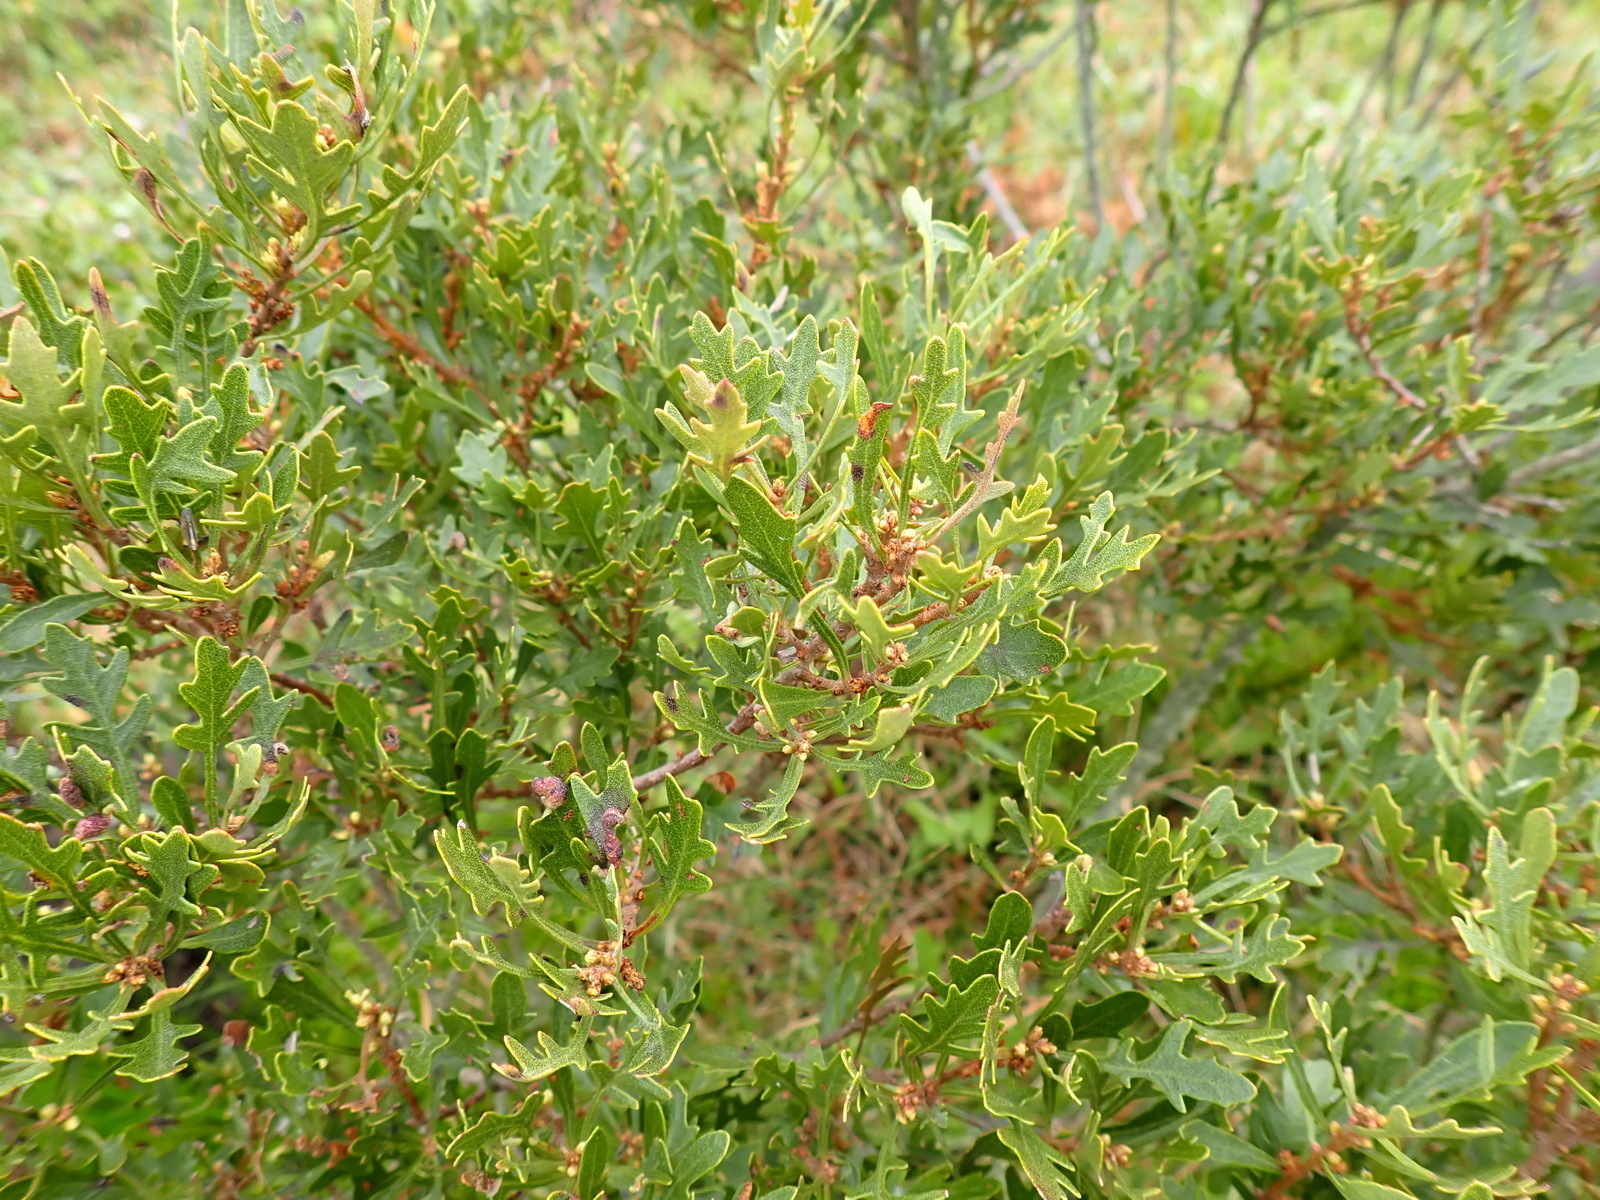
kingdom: Plantae
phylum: Tracheophyta
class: Magnoliopsida
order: Fagales
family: Myricaceae
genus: Morella
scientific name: Morella quercifolia
